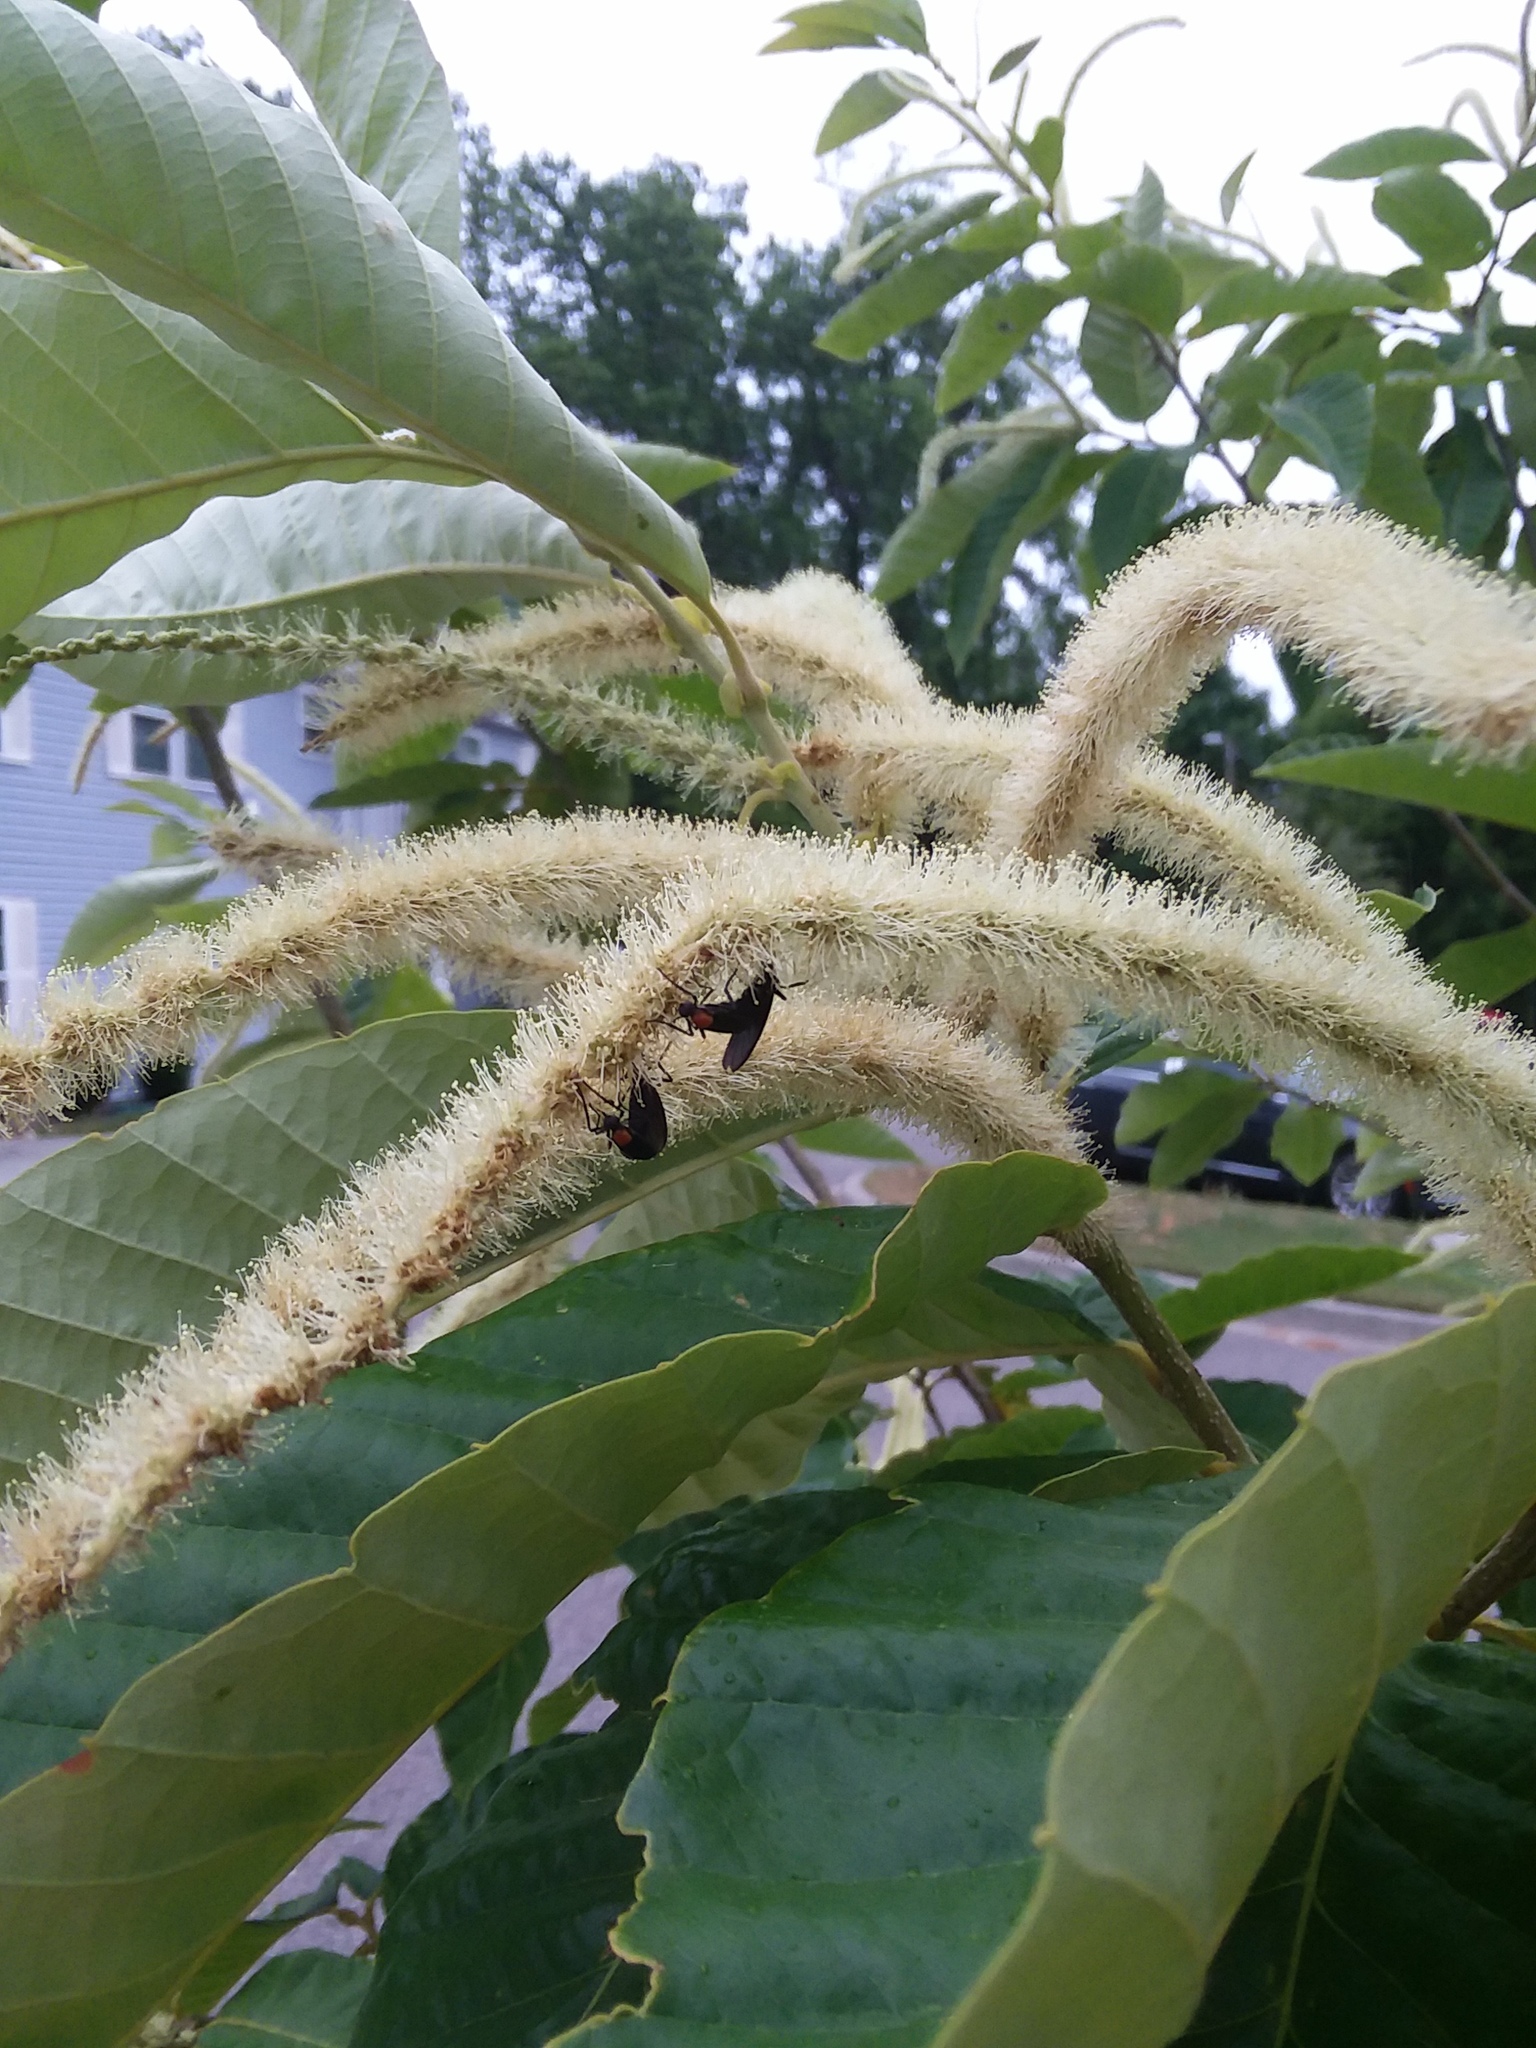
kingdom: Animalia
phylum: Arthropoda
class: Insecta
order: Diptera
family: Bibionidae
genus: Plecia
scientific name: Plecia nearctica
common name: March fly
